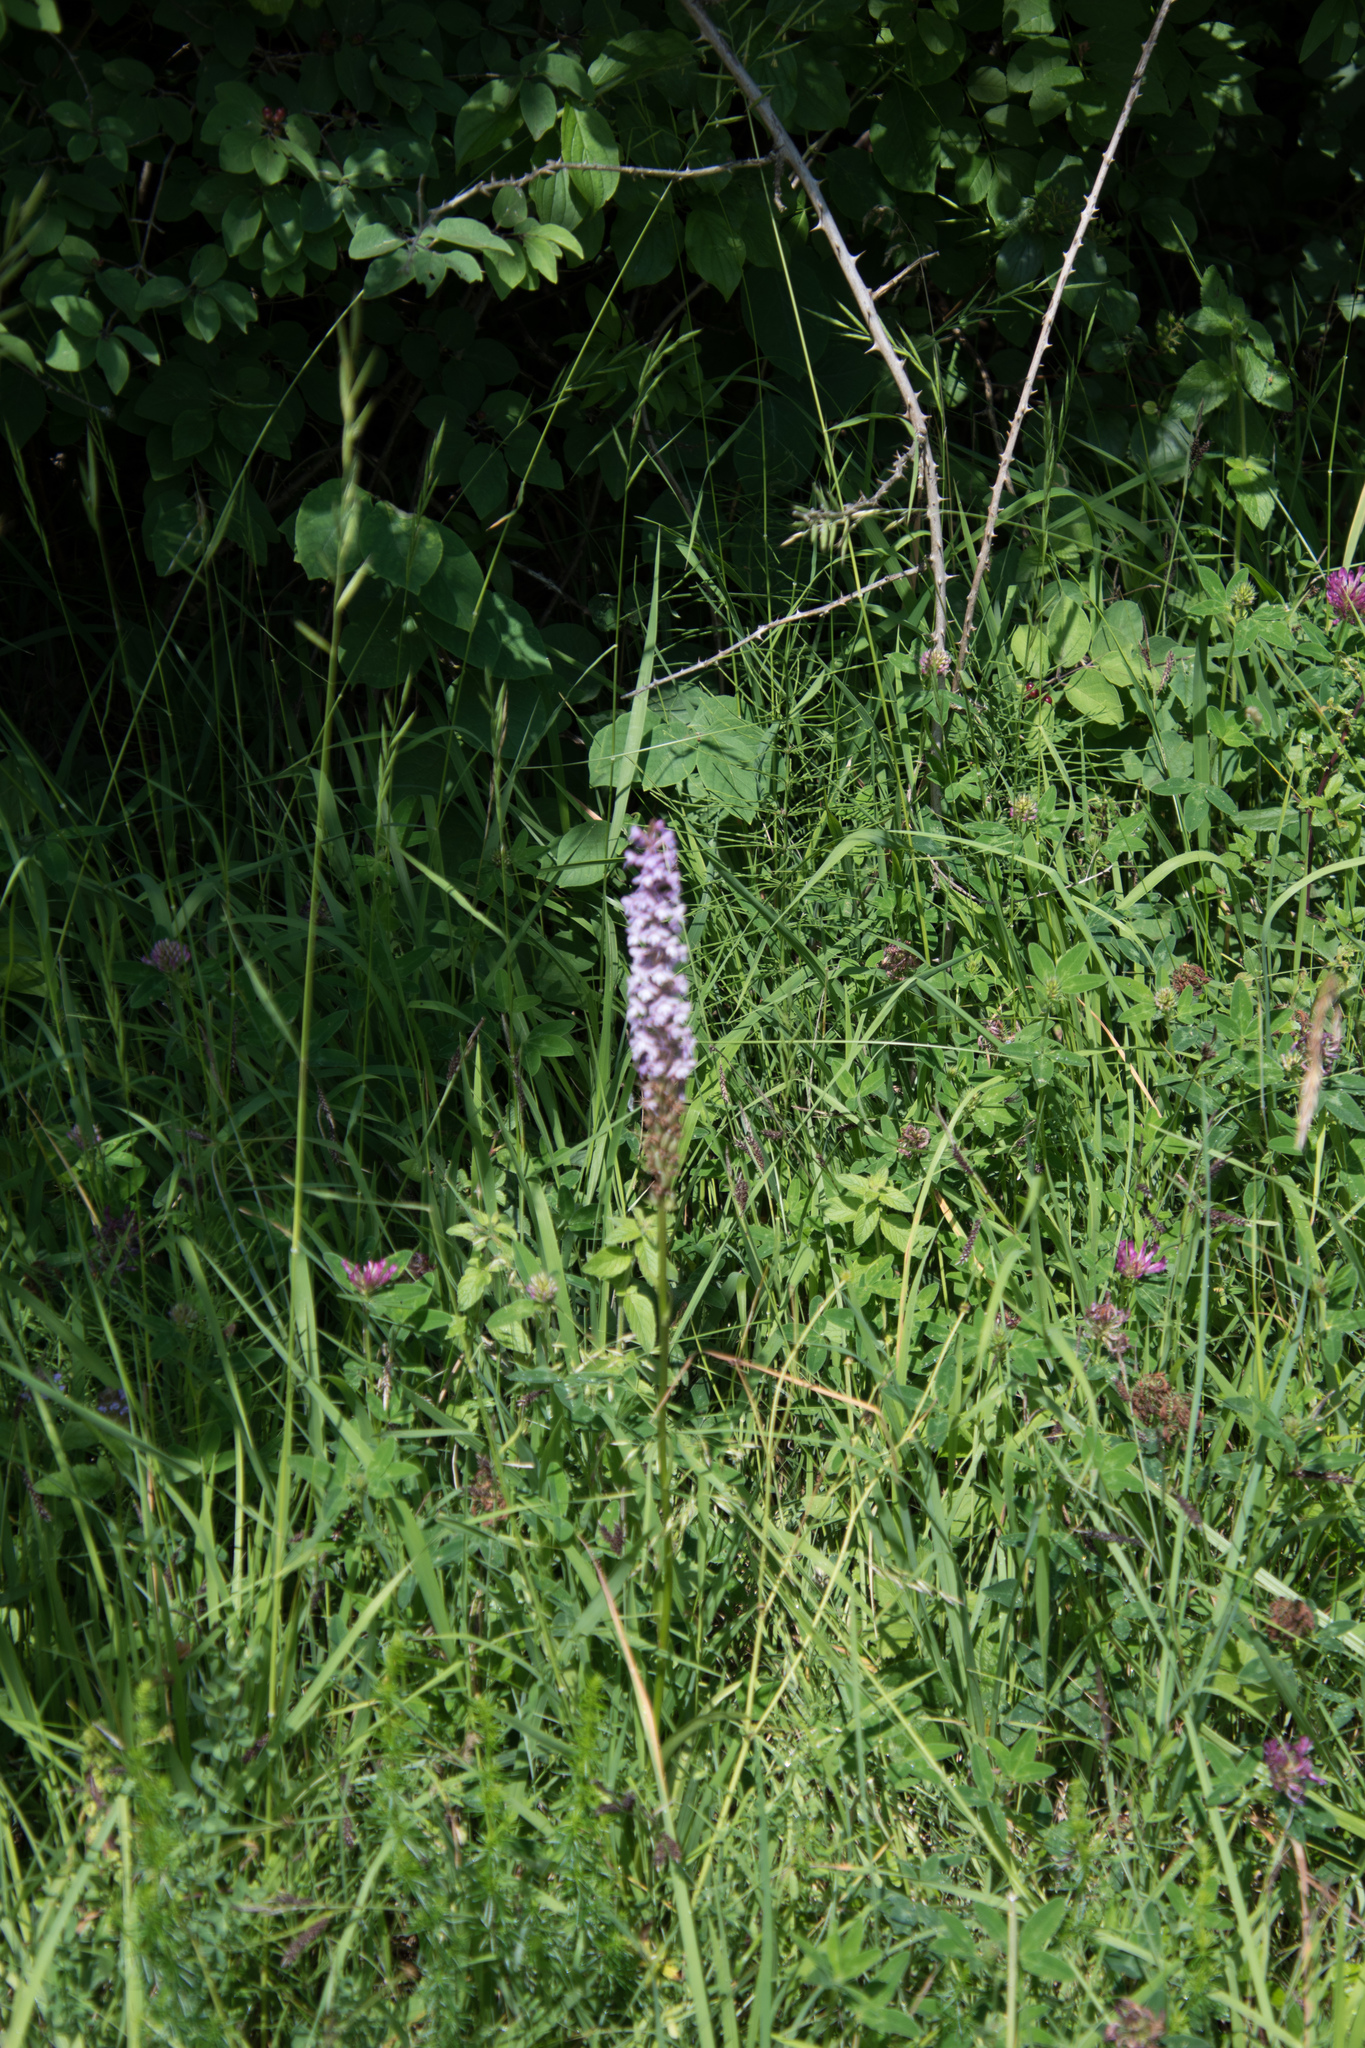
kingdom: Plantae
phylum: Tracheophyta
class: Liliopsida
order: Asparagales
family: Orchidaceae
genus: Gymnadenia
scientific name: Gymnadenia conopsea
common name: Fragrant orchid
